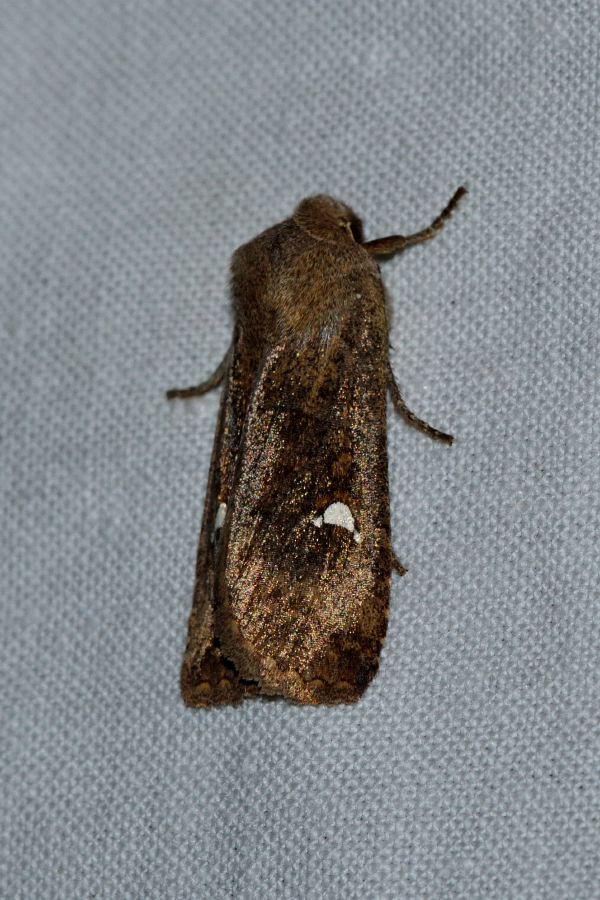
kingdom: Animalia
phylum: Arthropoda
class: Insecta
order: Lepidoptera
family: Noctuidae
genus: Eupsilia
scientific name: Eupsilia transversa
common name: Satellite
